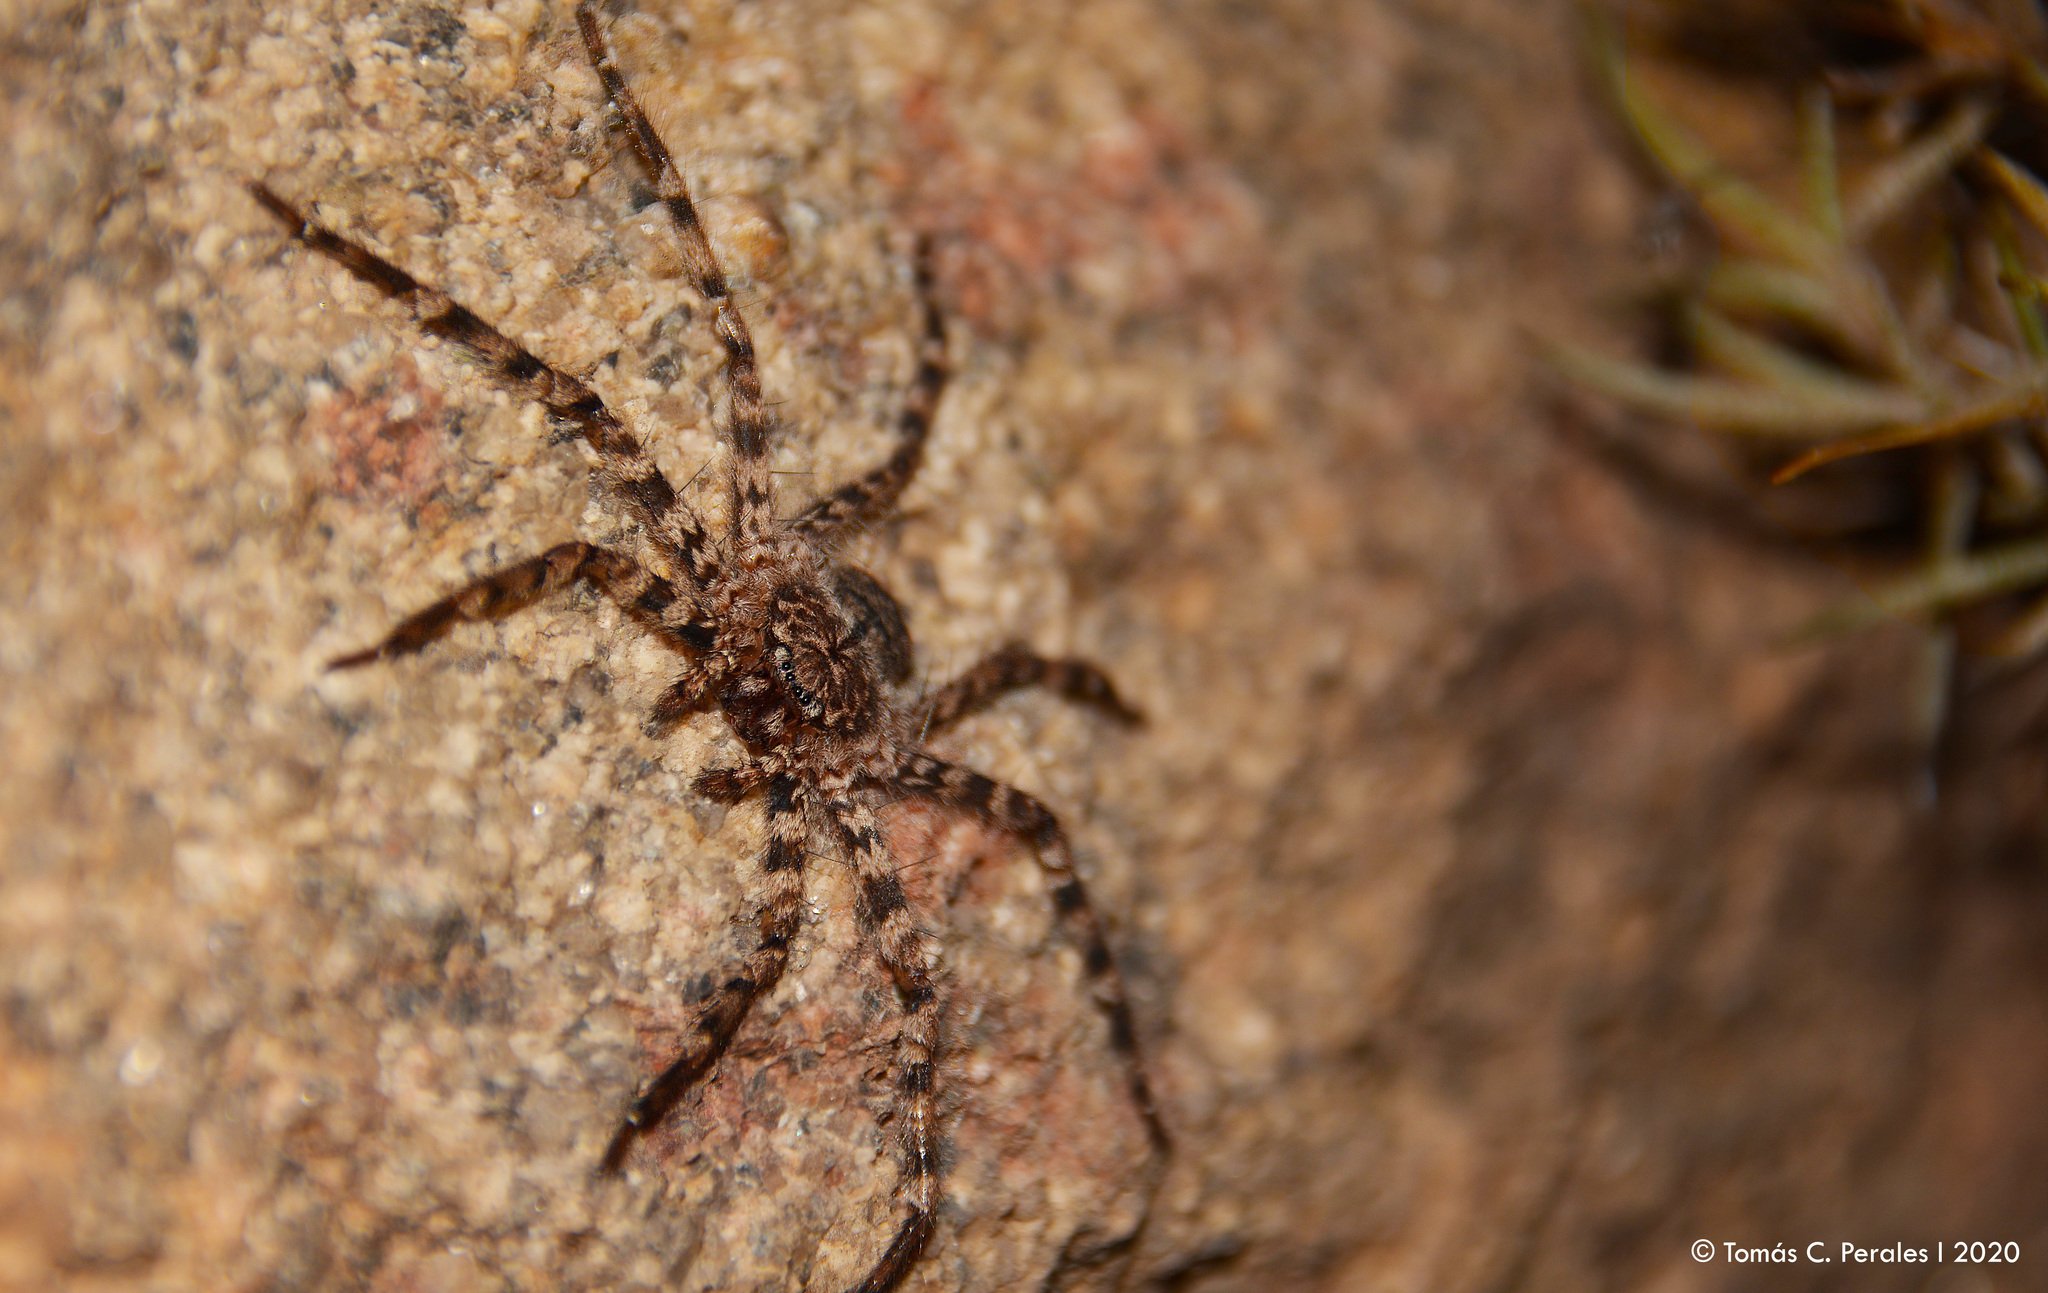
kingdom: Animalia
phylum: Arthropoda
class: Arachnida
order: Araneae
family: Selenopidae
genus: Selenops
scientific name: Selenops
